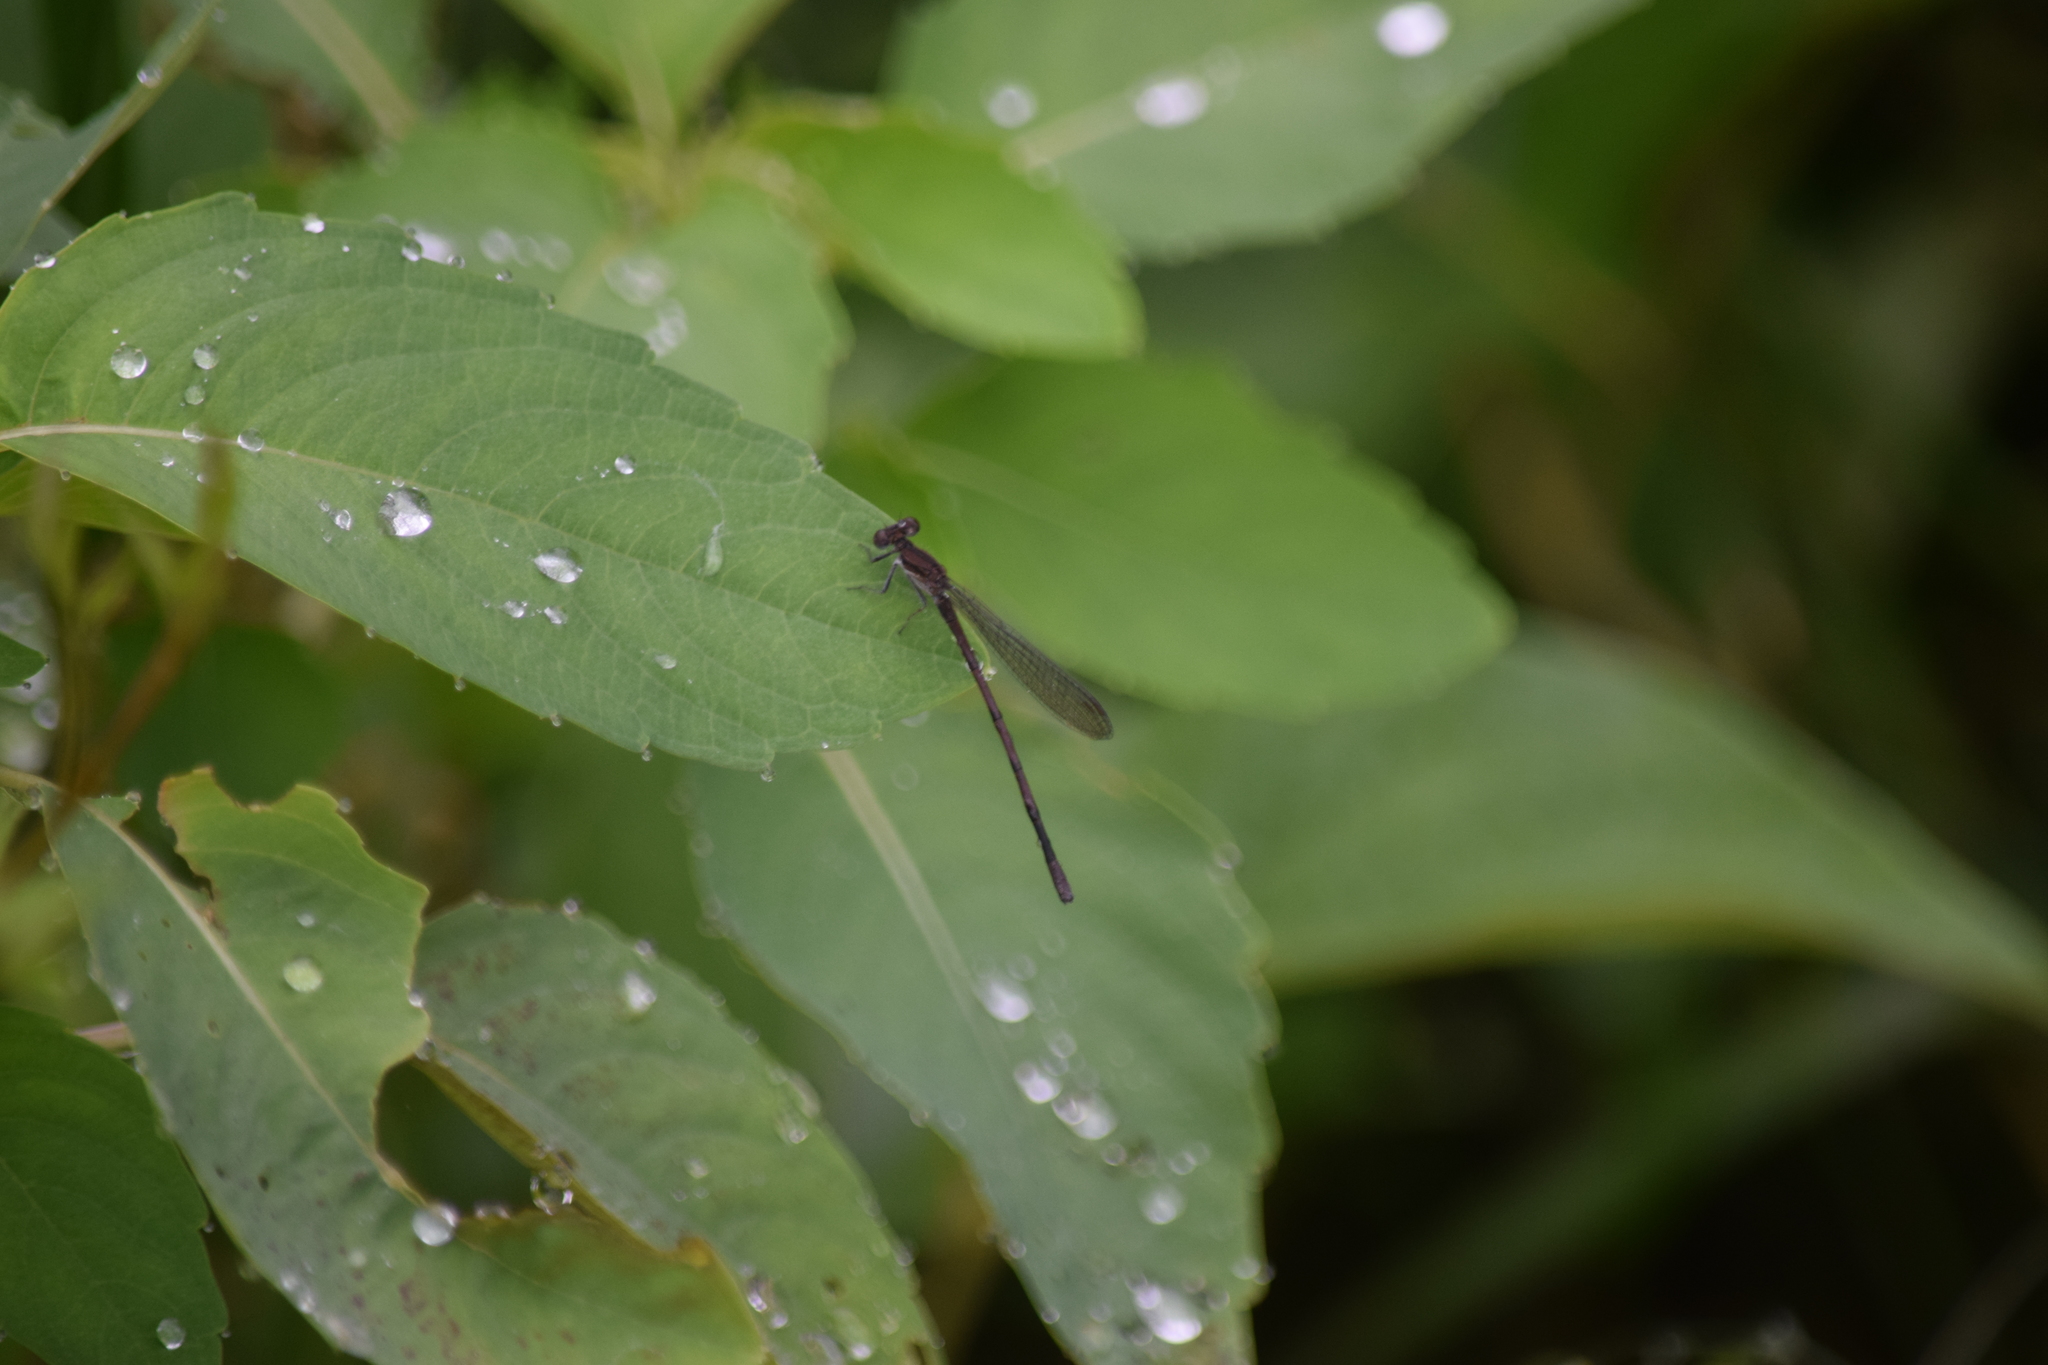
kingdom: Animalia
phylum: Arthropoda
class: Insecta
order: Odonata
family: Coenagrionidae
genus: Argia
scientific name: Argia fumipennis
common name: Variable dancer
